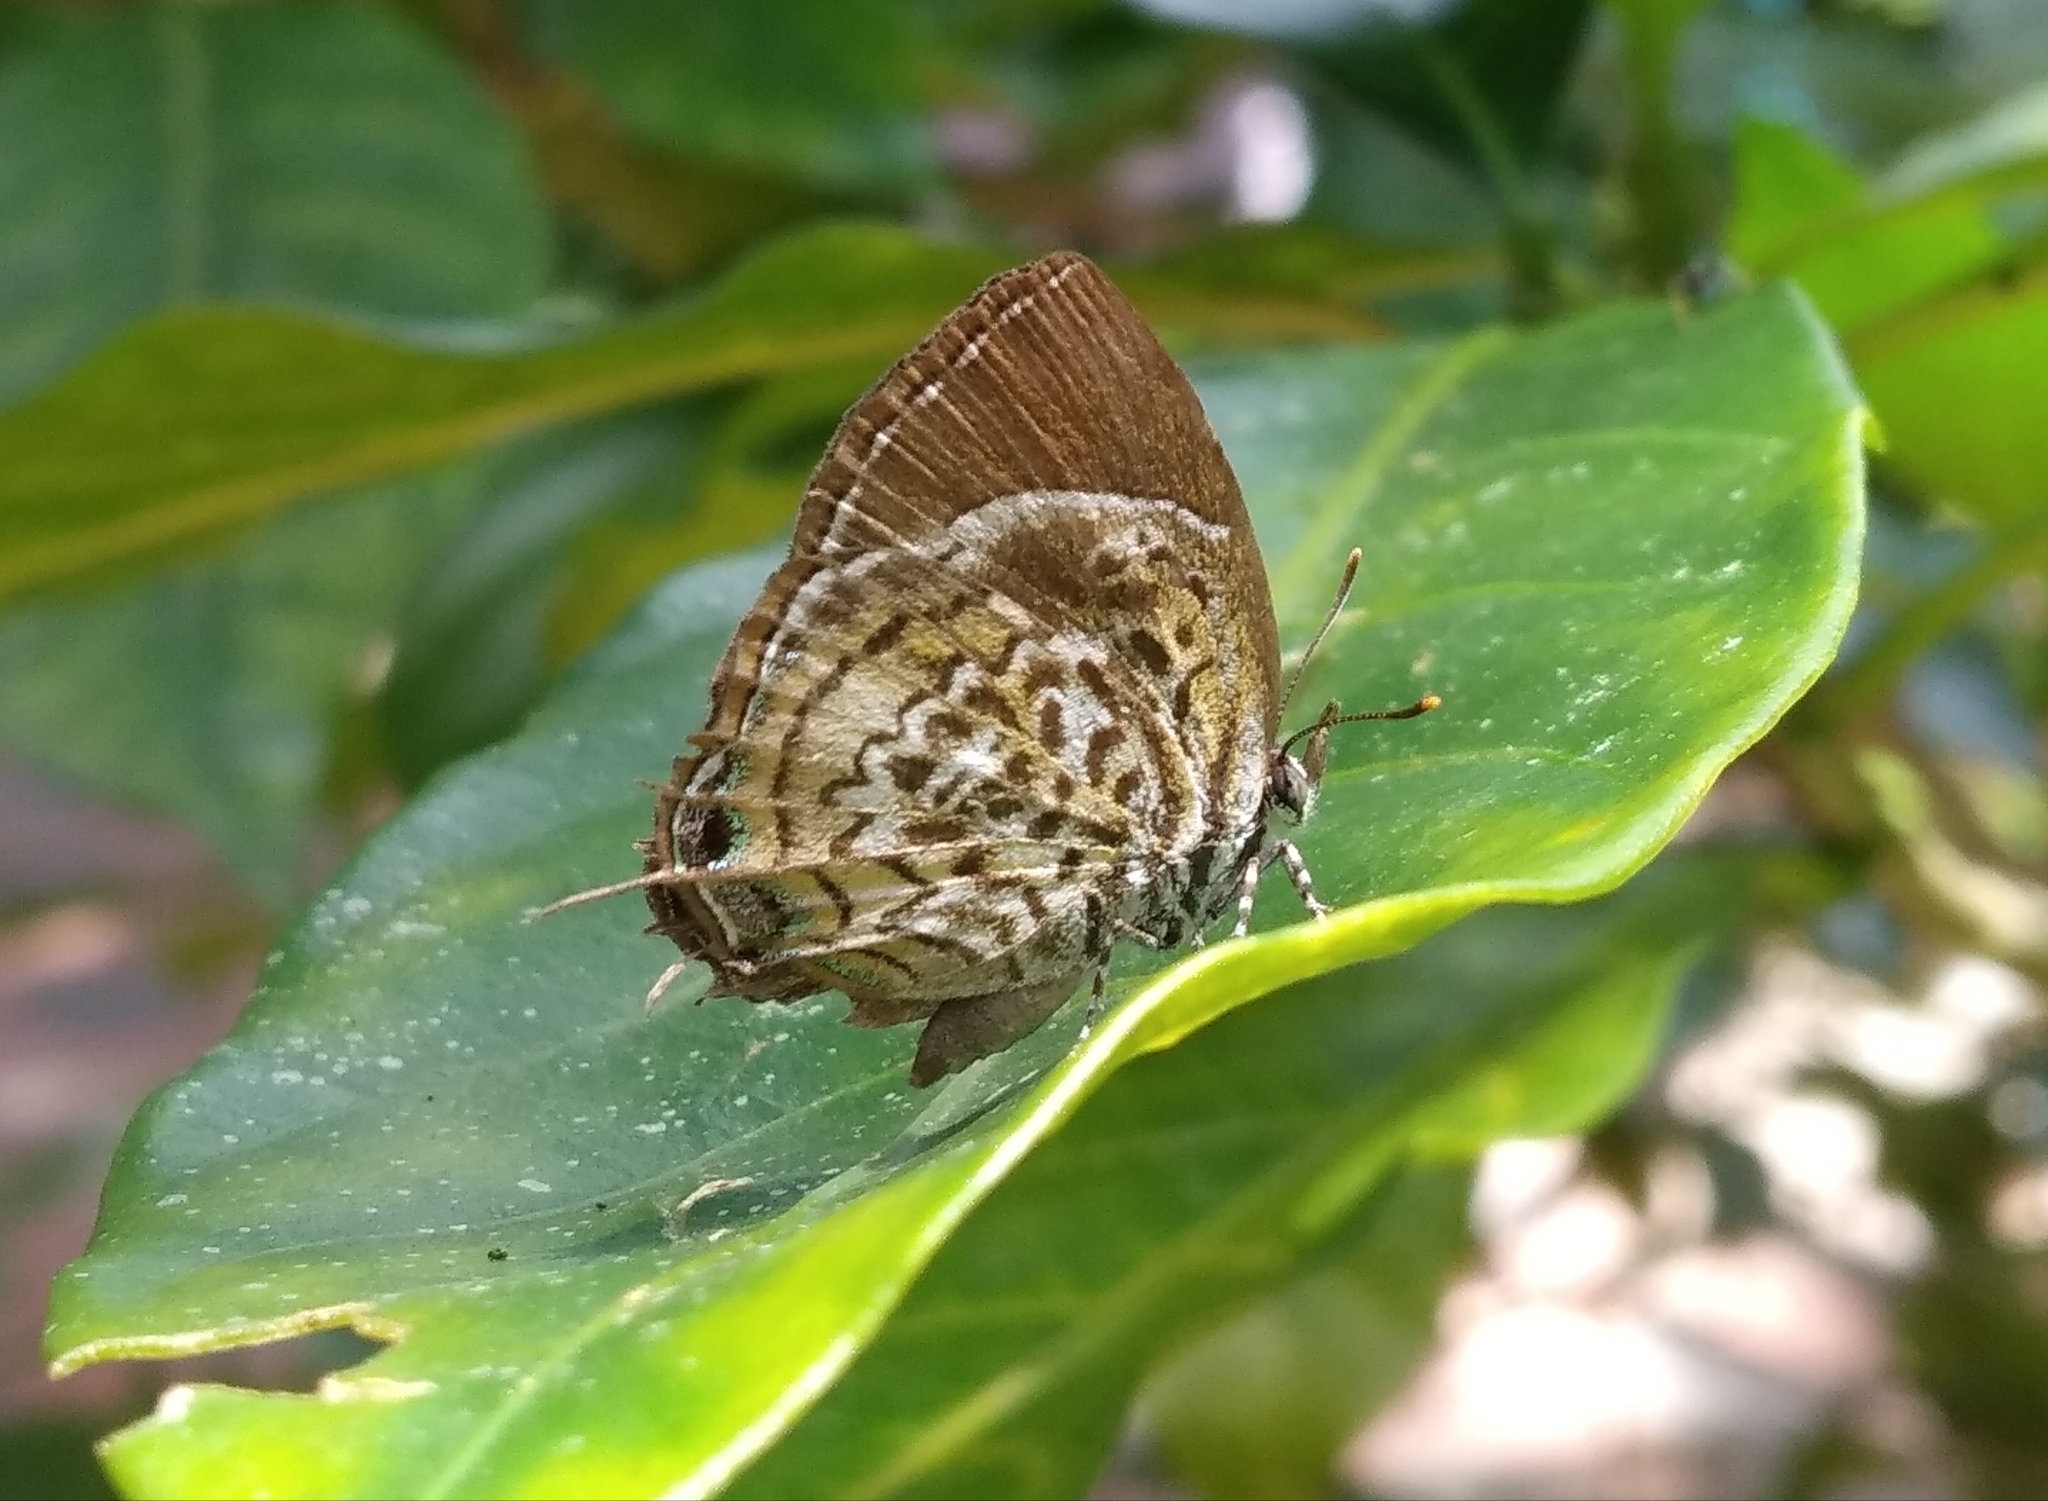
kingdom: Animalia
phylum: Arthropoda
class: Insecta
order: Lepidoptera
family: Lycaenidae
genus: Rathinda
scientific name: Rathinda amor
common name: Monkey puzzle
